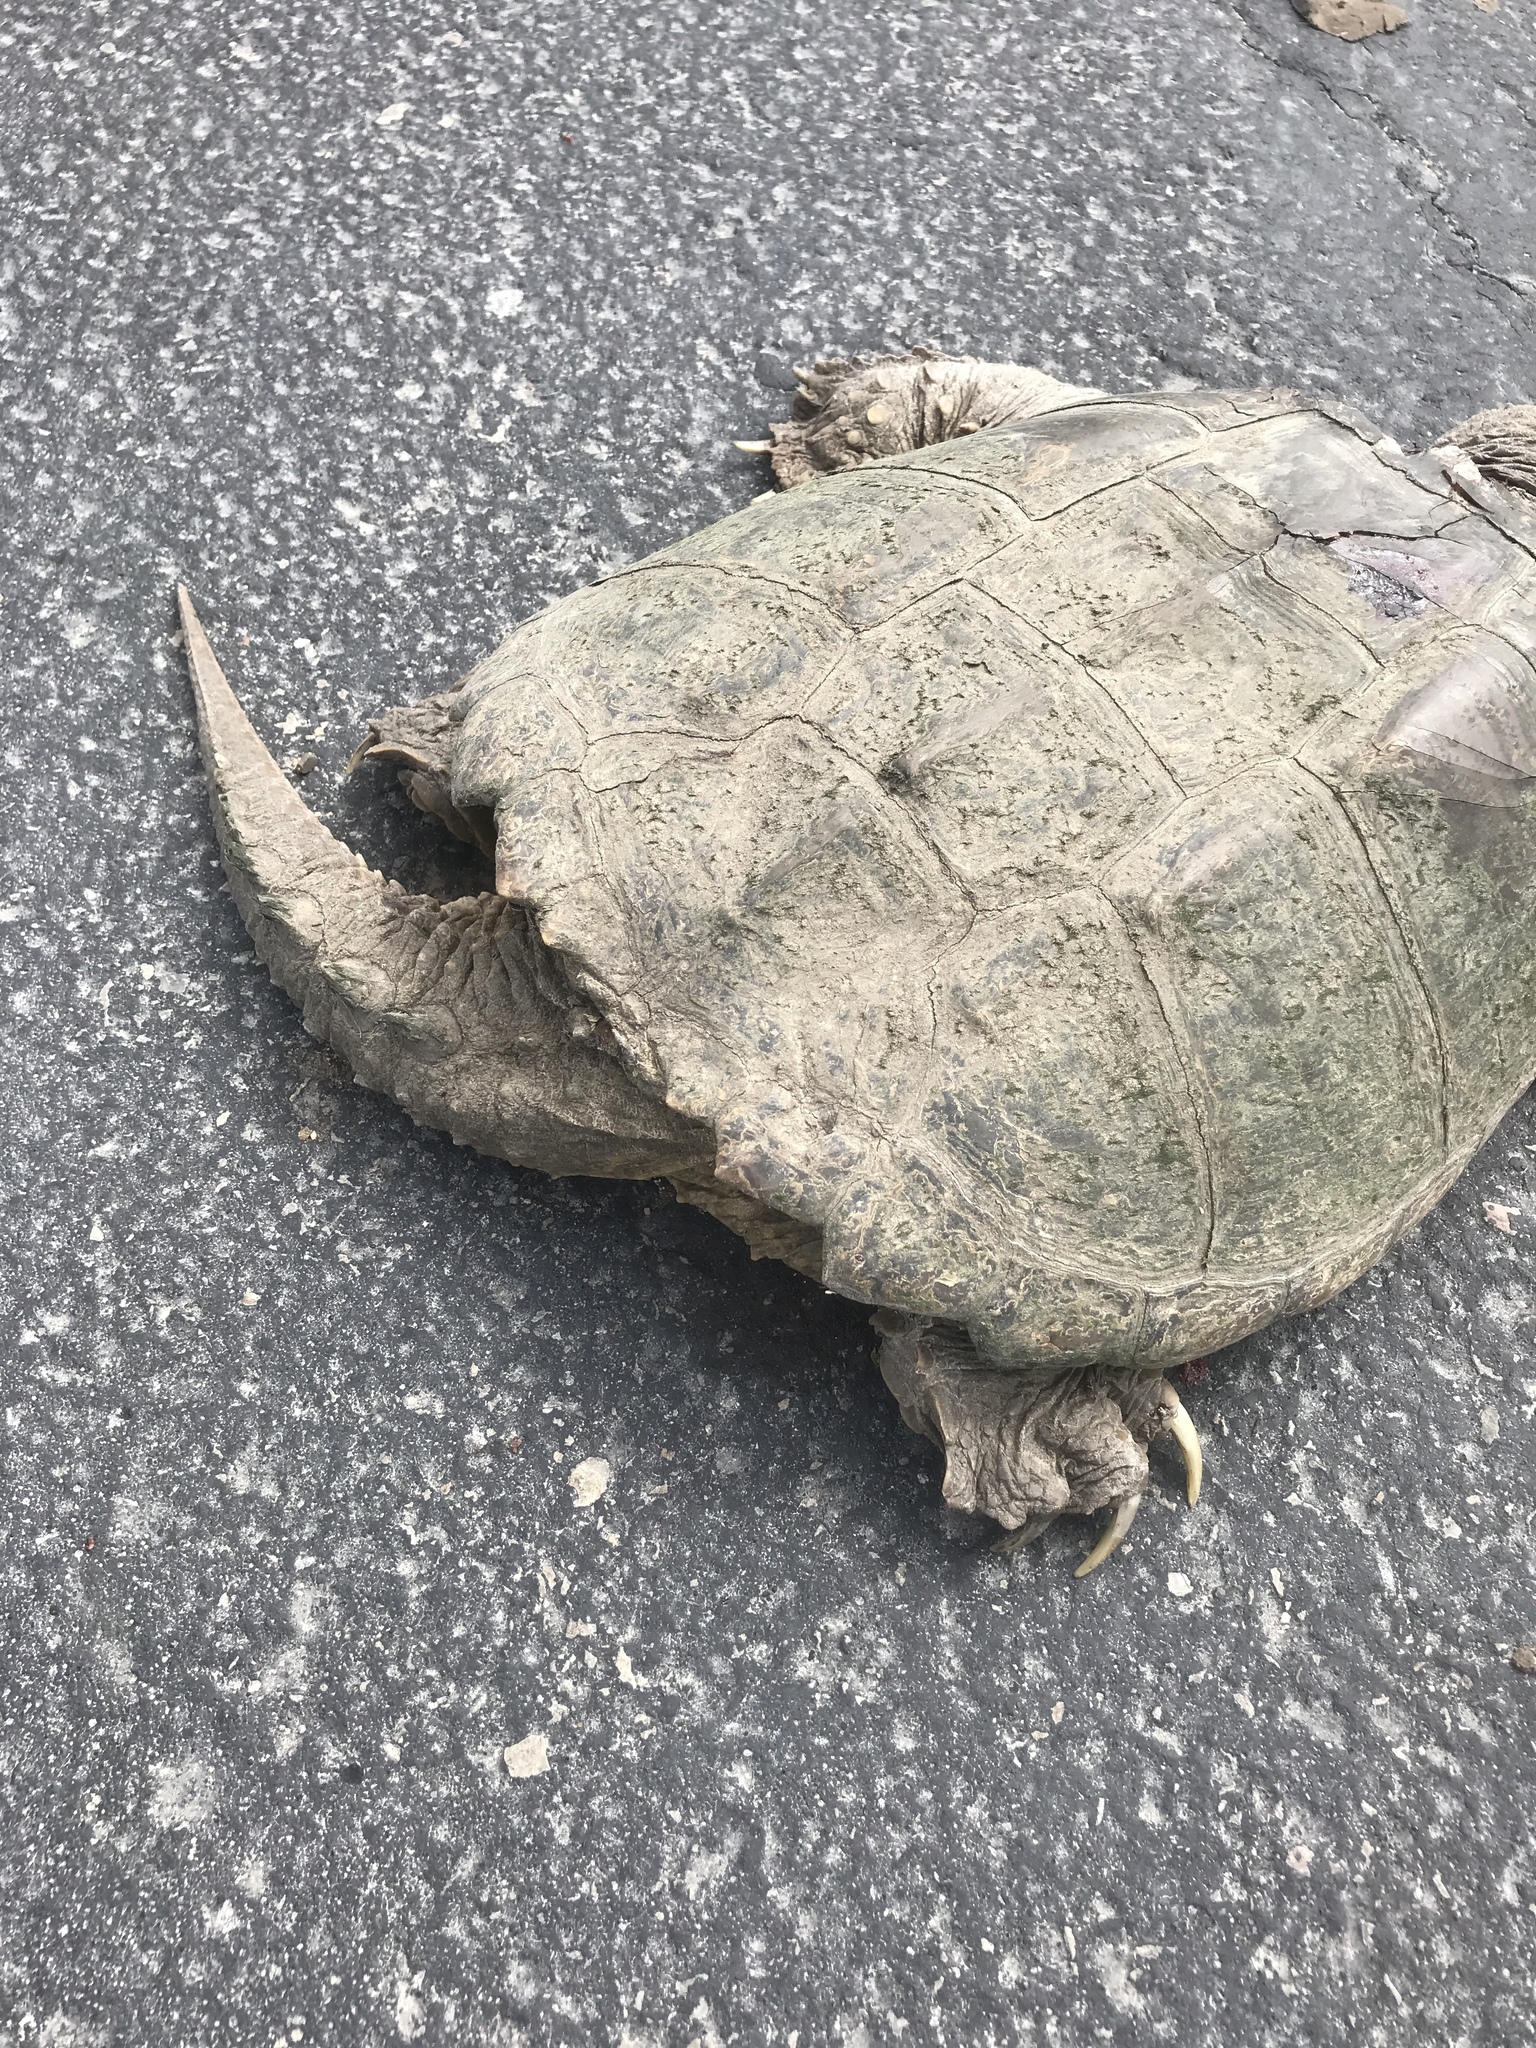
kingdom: Animalia
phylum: Chordata
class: Testudines
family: Chelydridae
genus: Chelydra
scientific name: Chelydra serpentina
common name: Common snapping turtle
